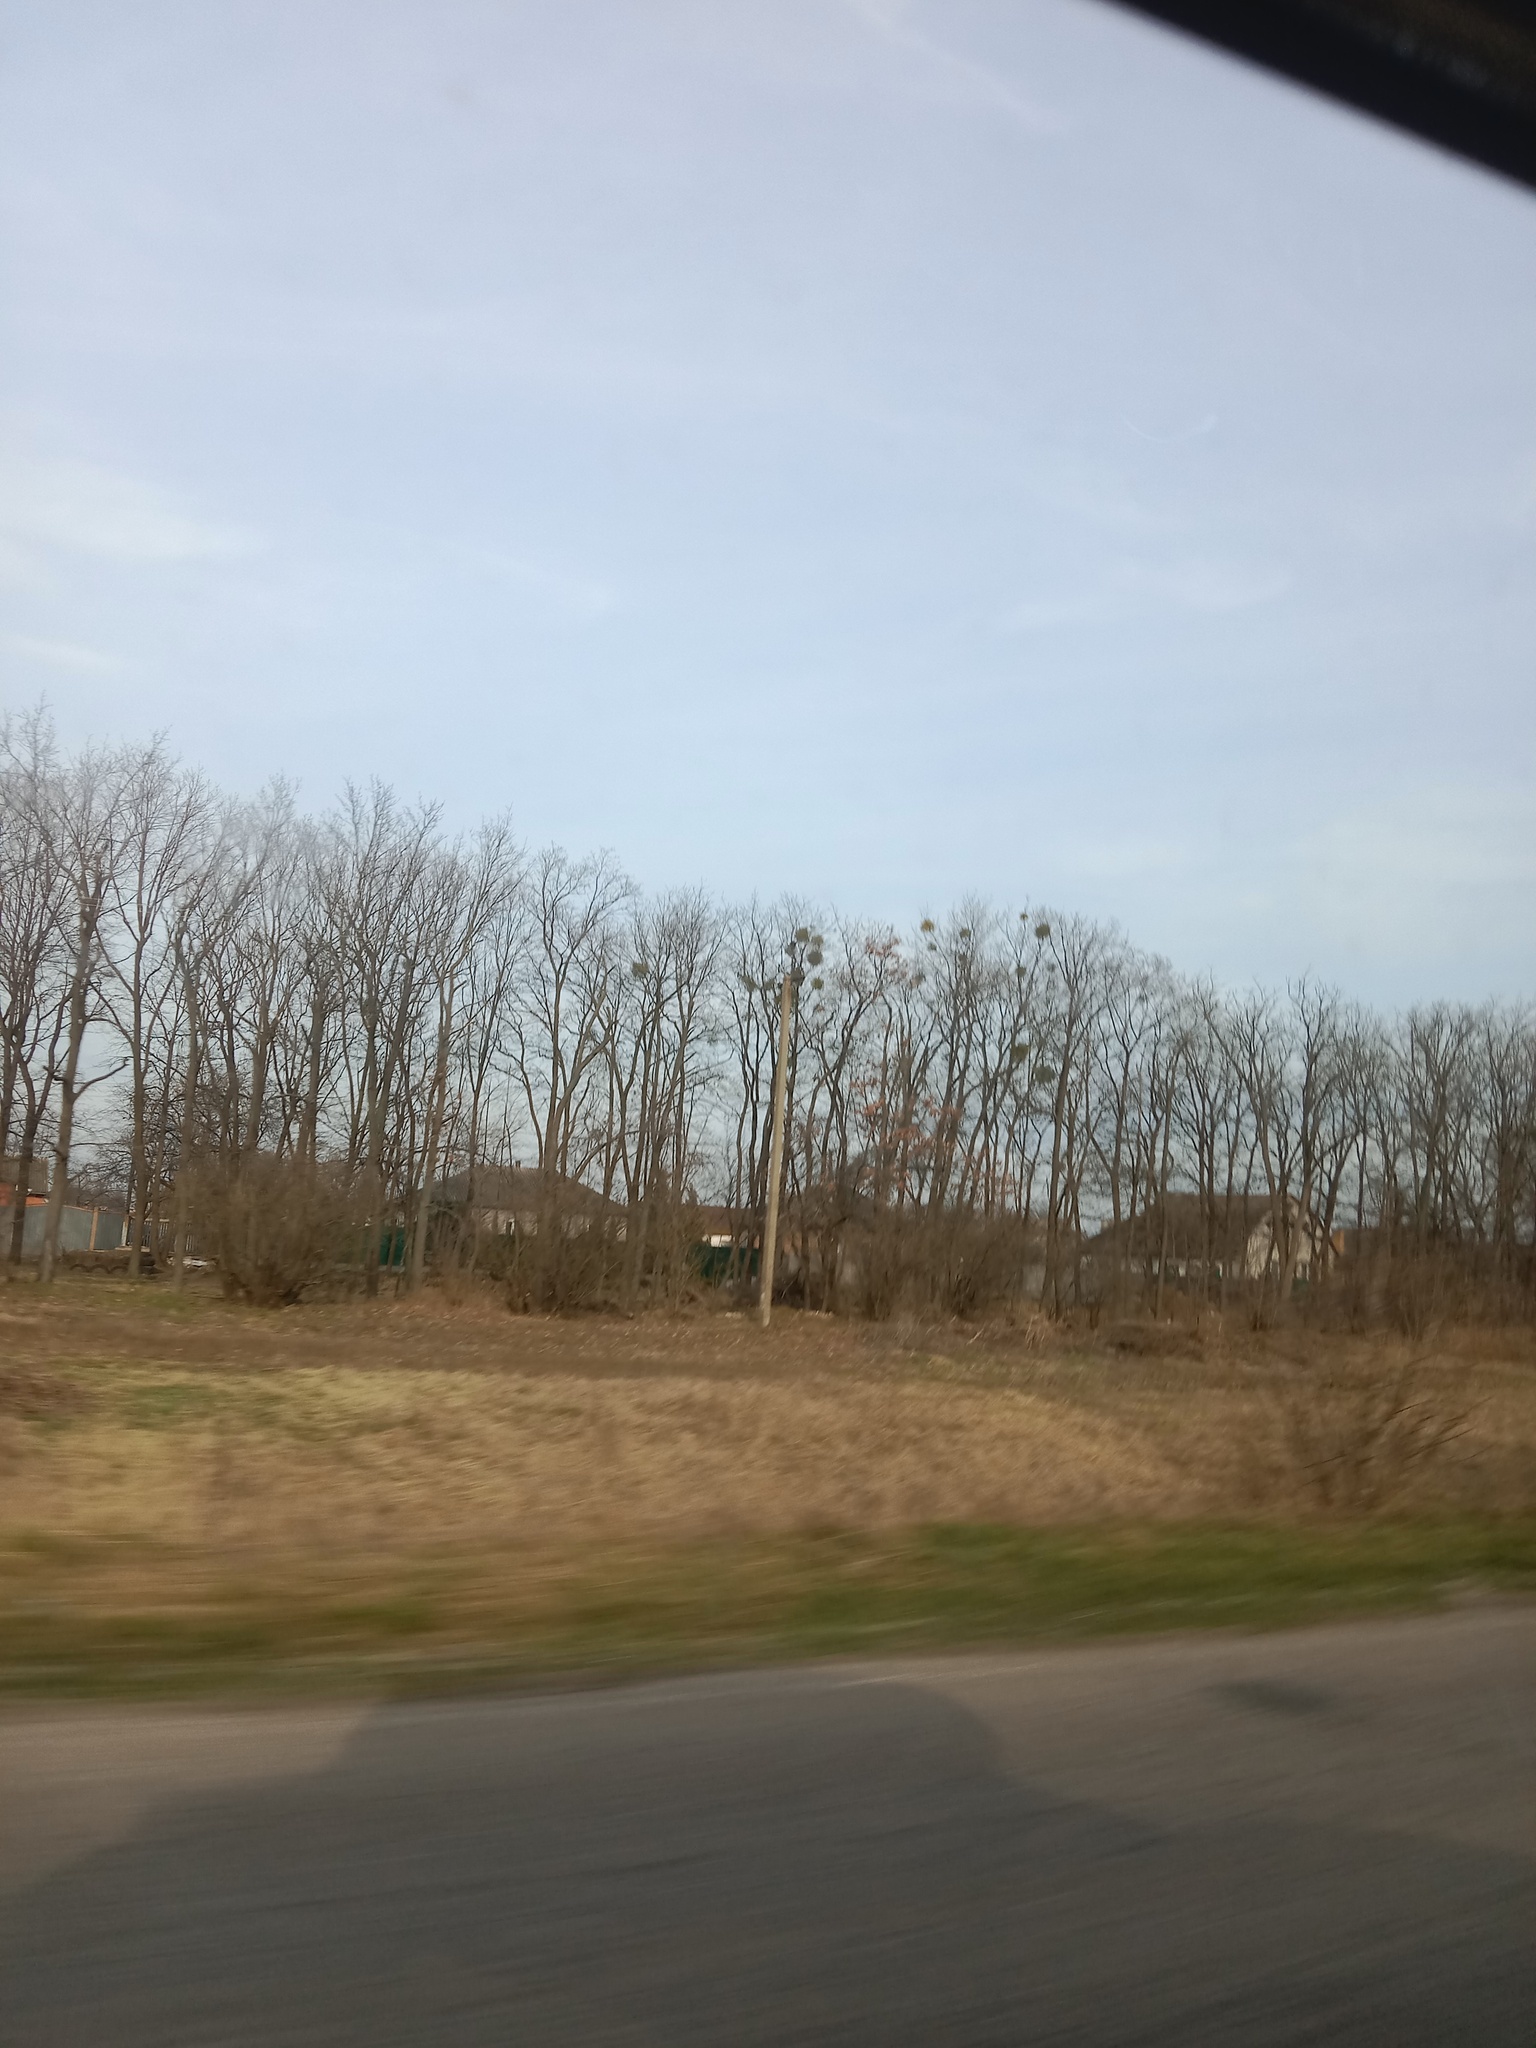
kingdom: Plantae
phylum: Tracheophyta
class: Magnoliopsida
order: Santalales
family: Viscaceae
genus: Viscum
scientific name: Viscum album
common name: Mistletoe
